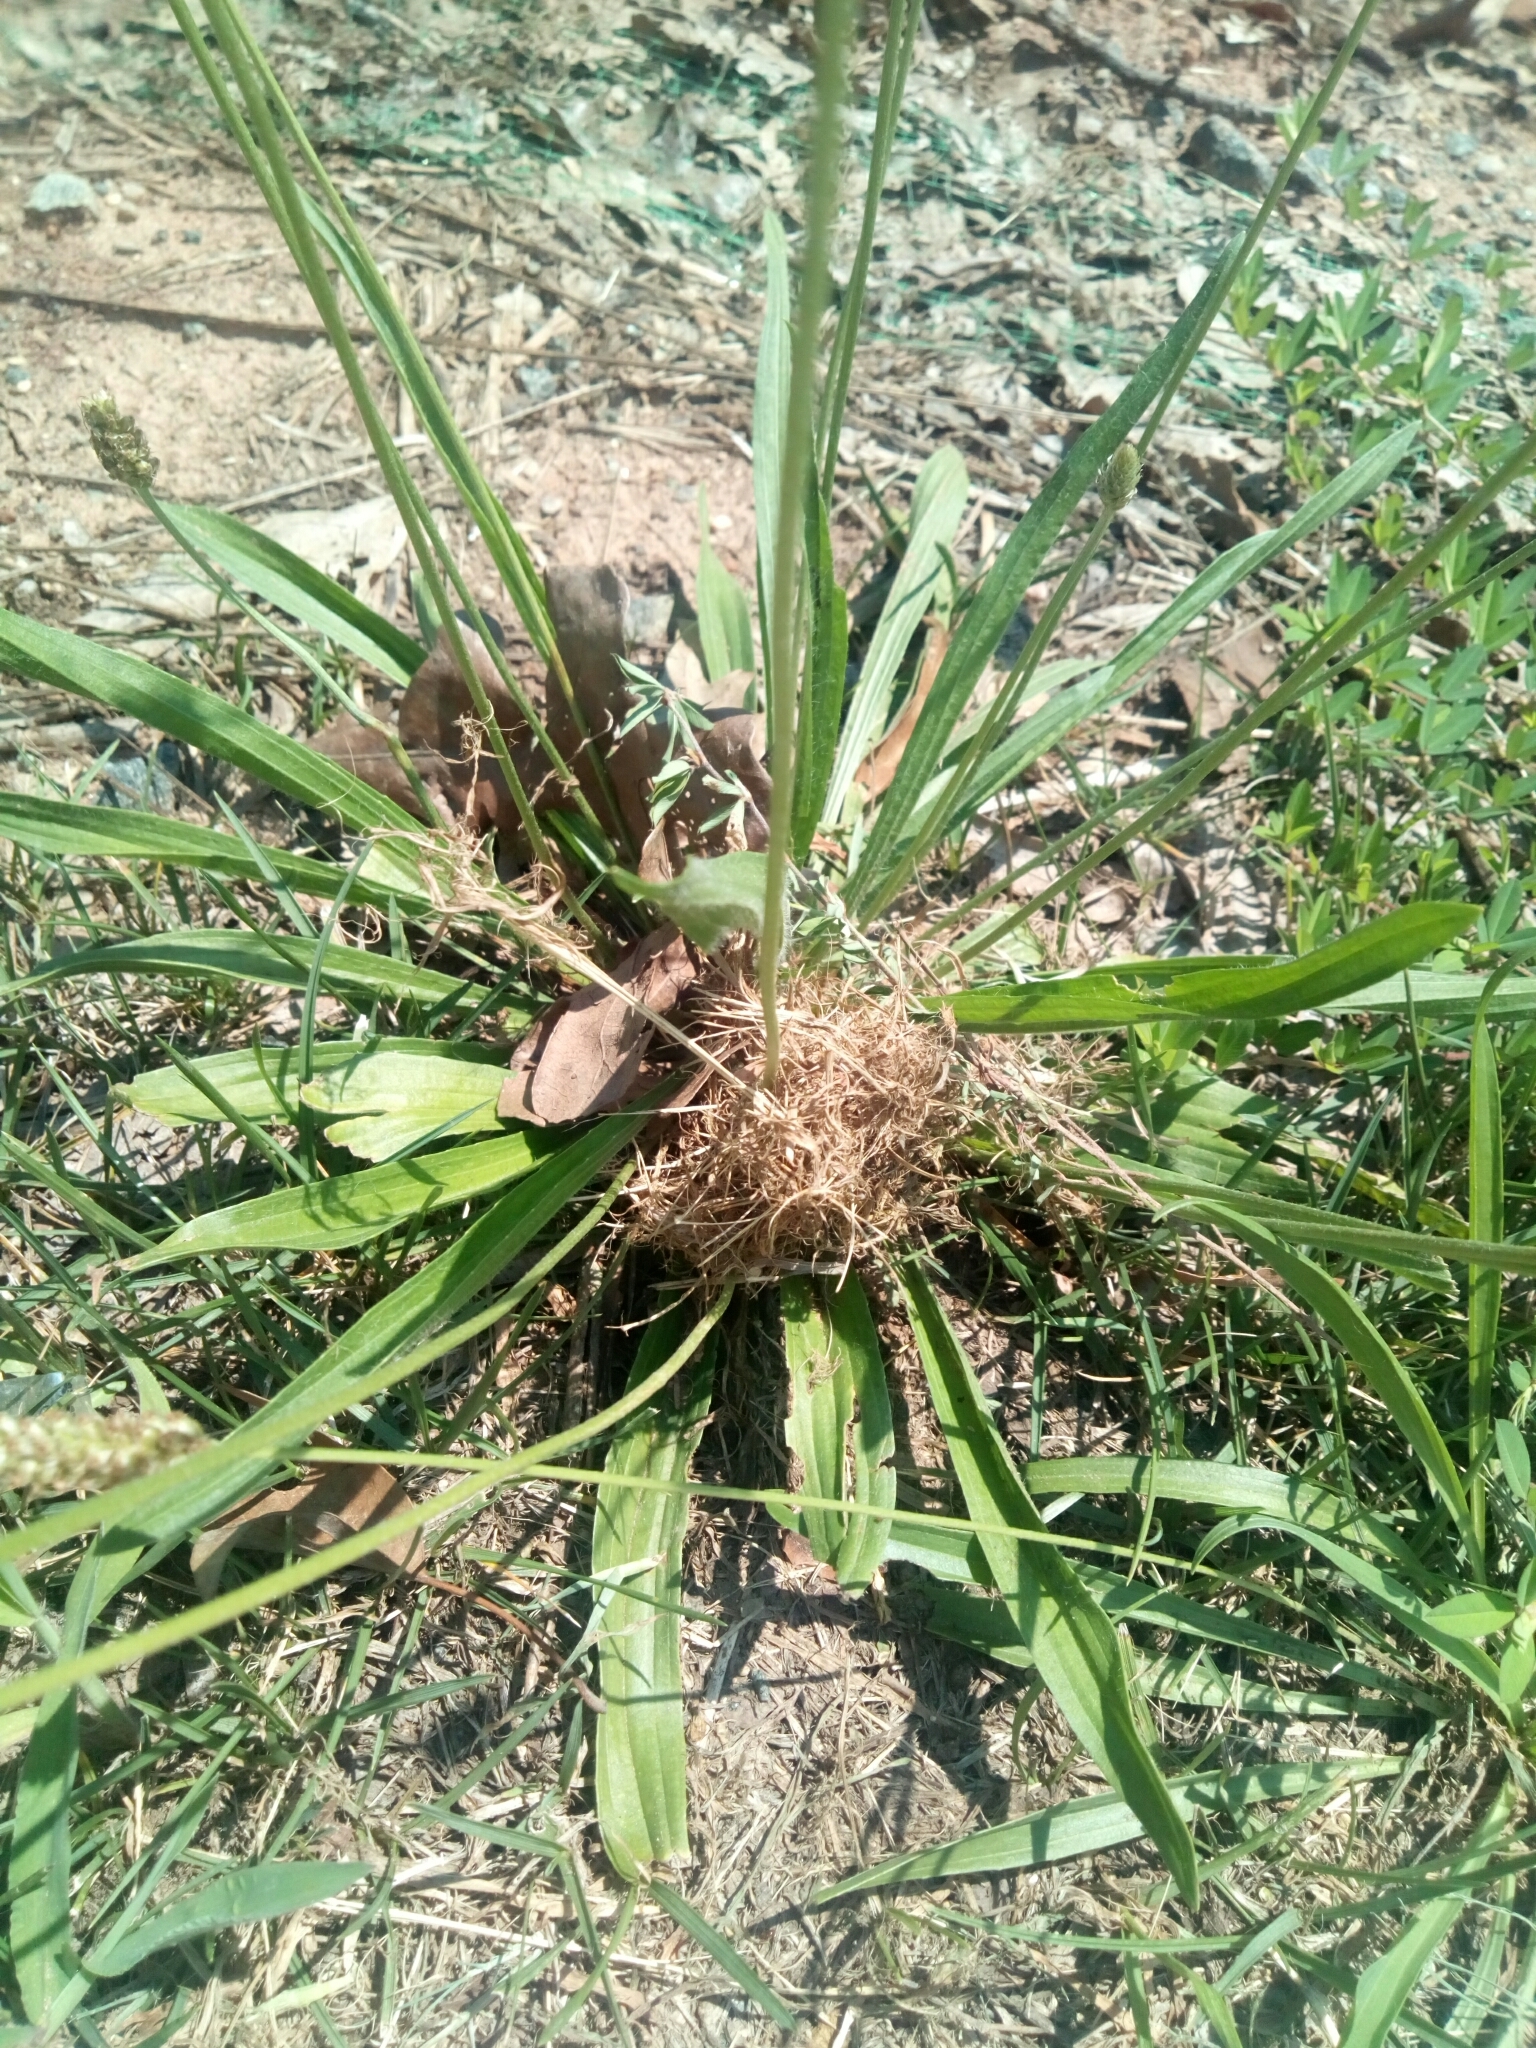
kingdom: Plantae
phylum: Tracheophyta
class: Magnoliopsida
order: Lamiales
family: Plantaginaceae
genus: Plantago
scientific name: Plantago lanceolata
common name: Ribwort plantain
